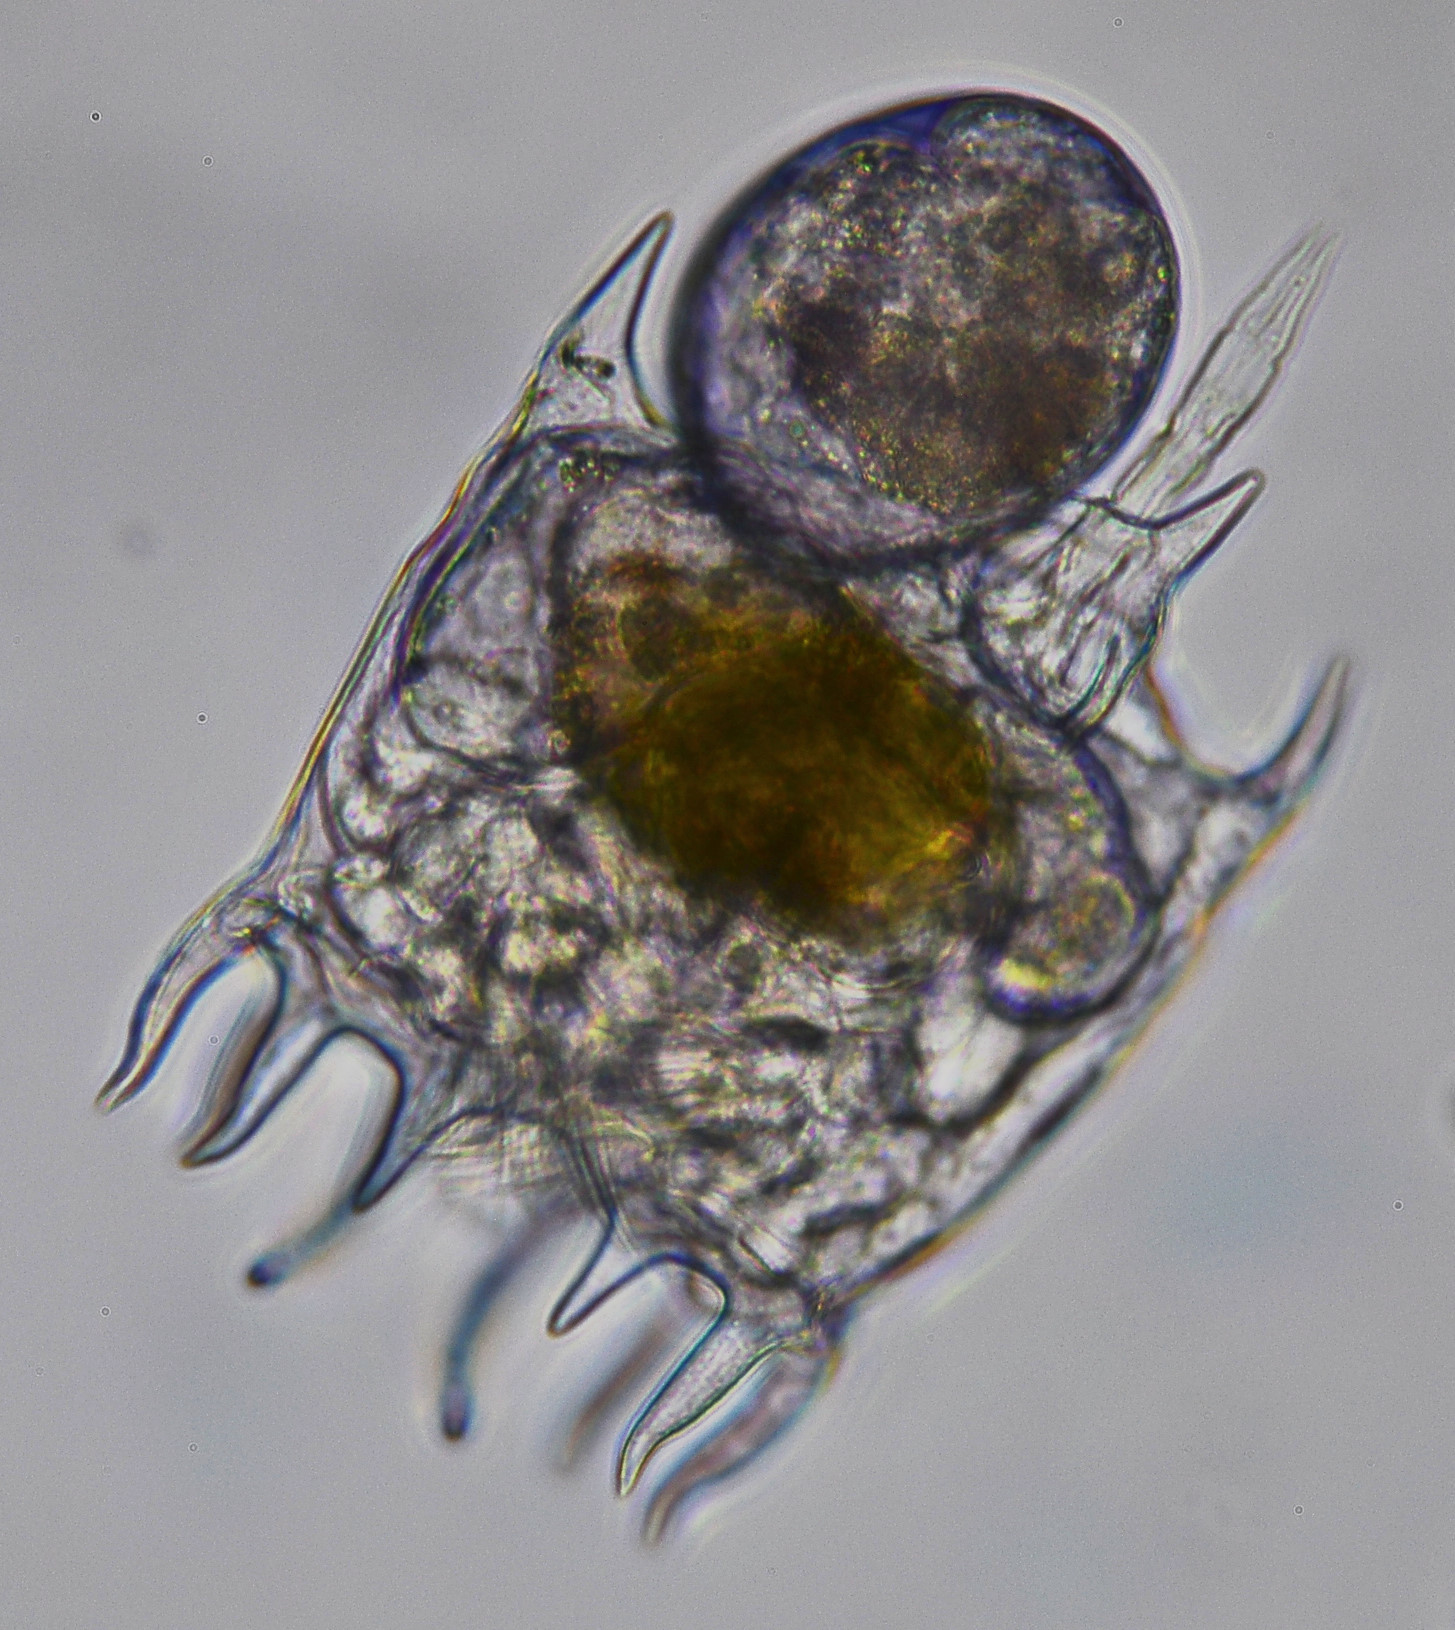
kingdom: Animalia
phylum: Rotifera
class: Eurotatoria
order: Ploima
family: Brachionidae
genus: Plationus
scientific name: Plationus patulus
